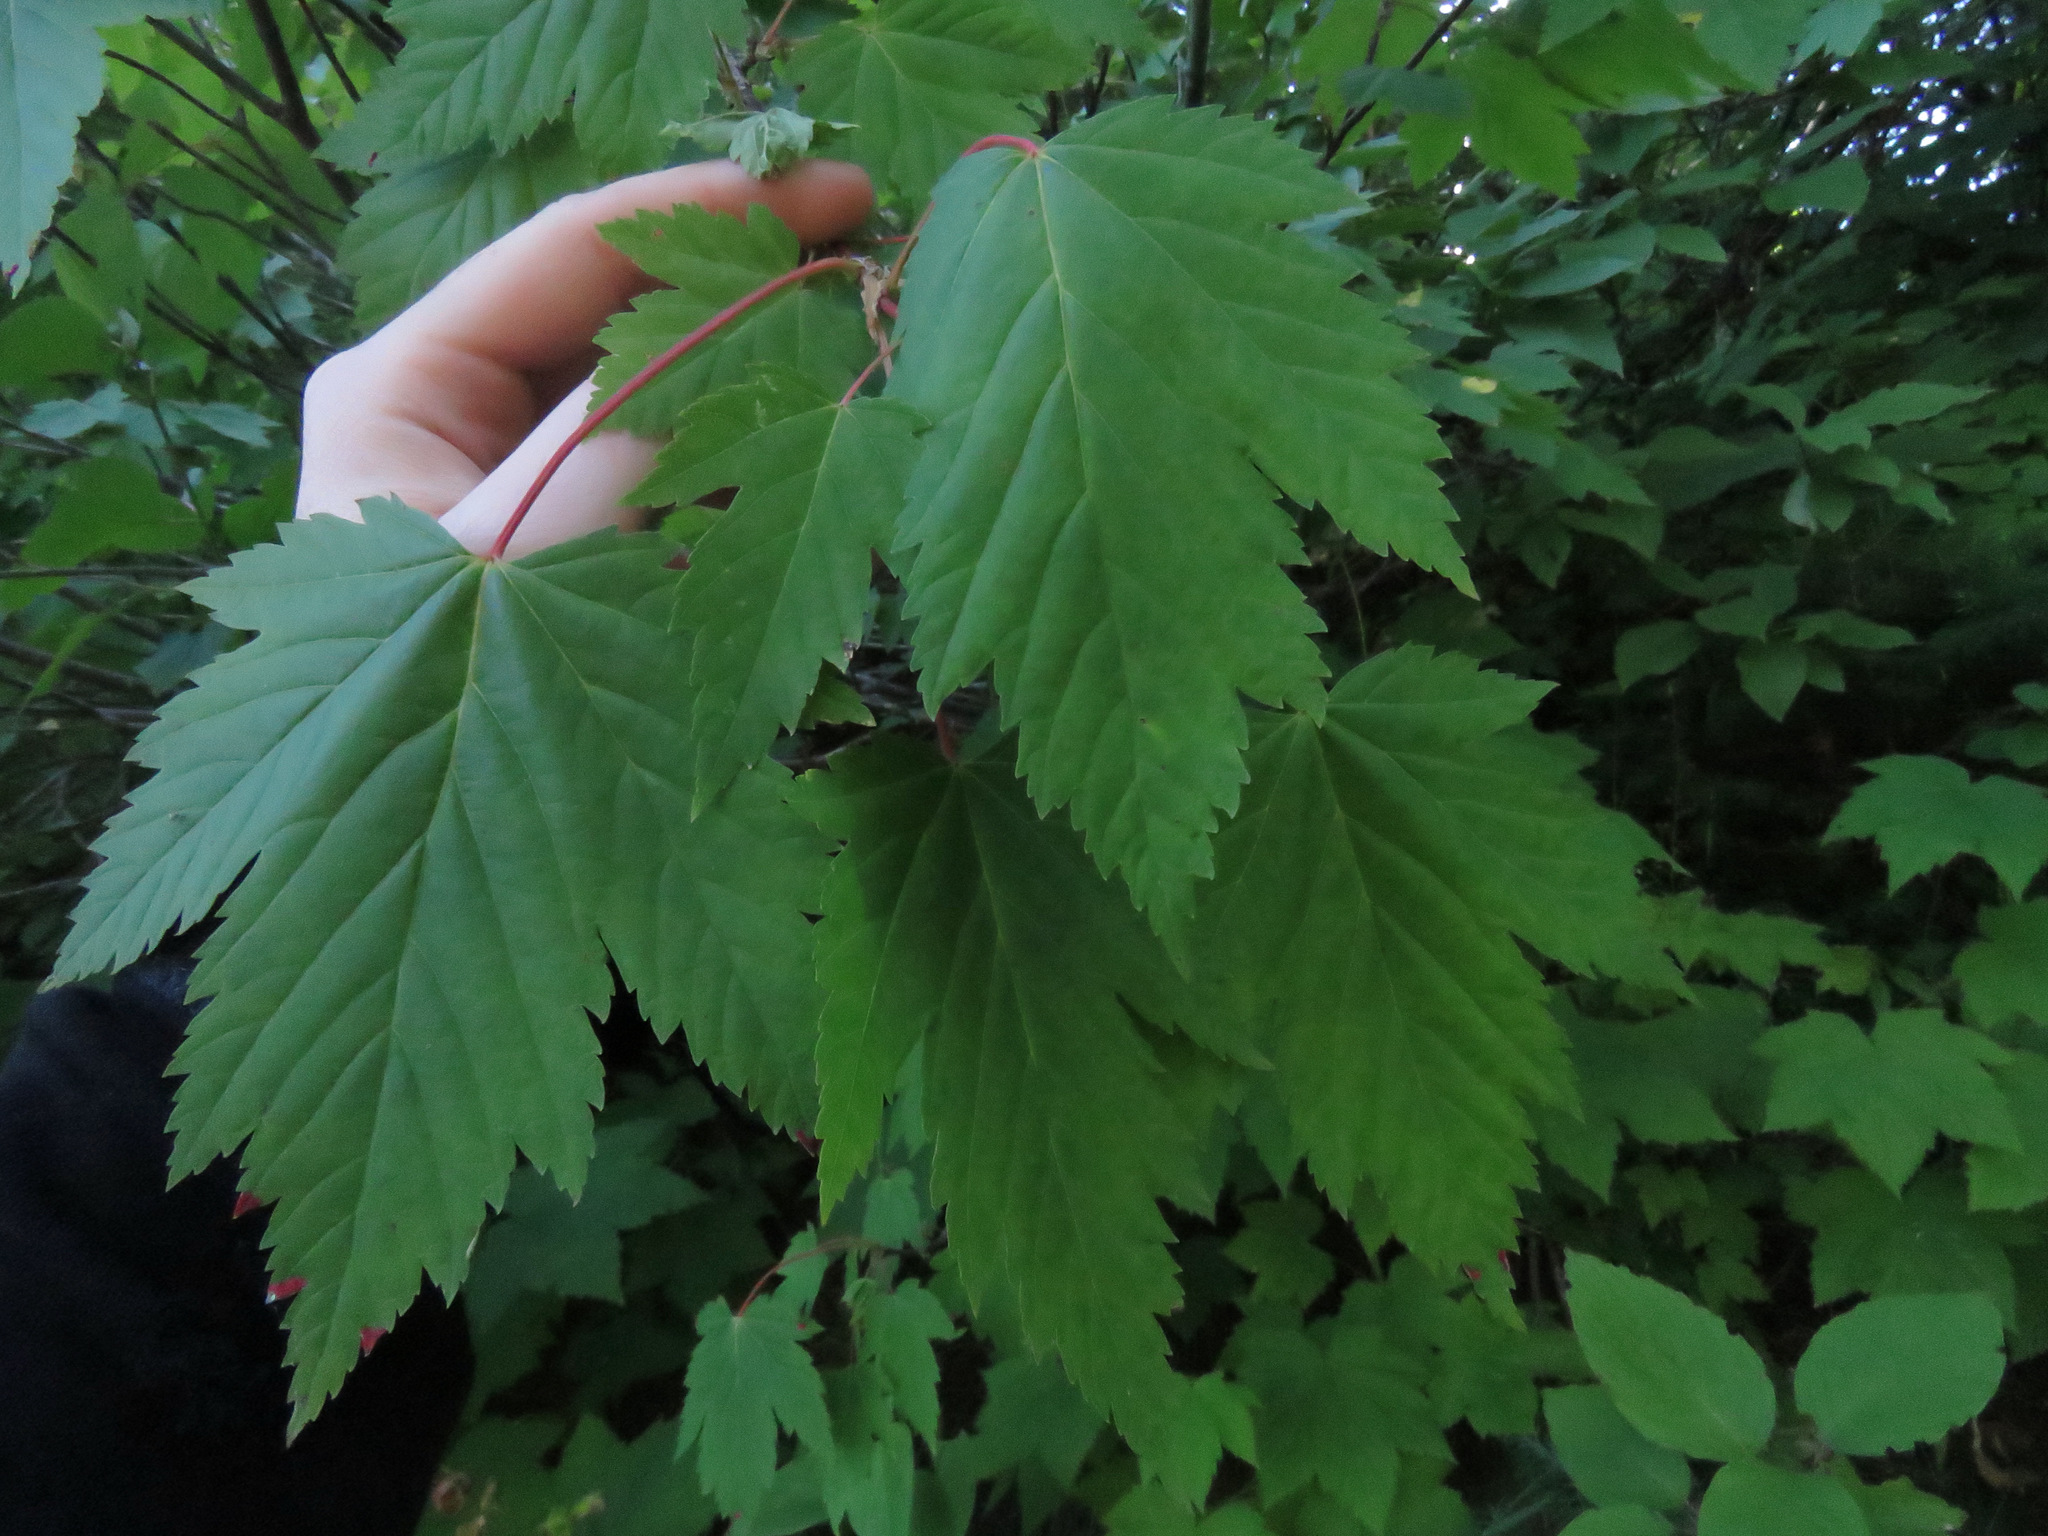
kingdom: Plantae
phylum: Tracheophyta
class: Magnoliopsida
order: Sapindales
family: Sapindaceae
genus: Acer
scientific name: Acer glabrum
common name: Rocky mountain maple
